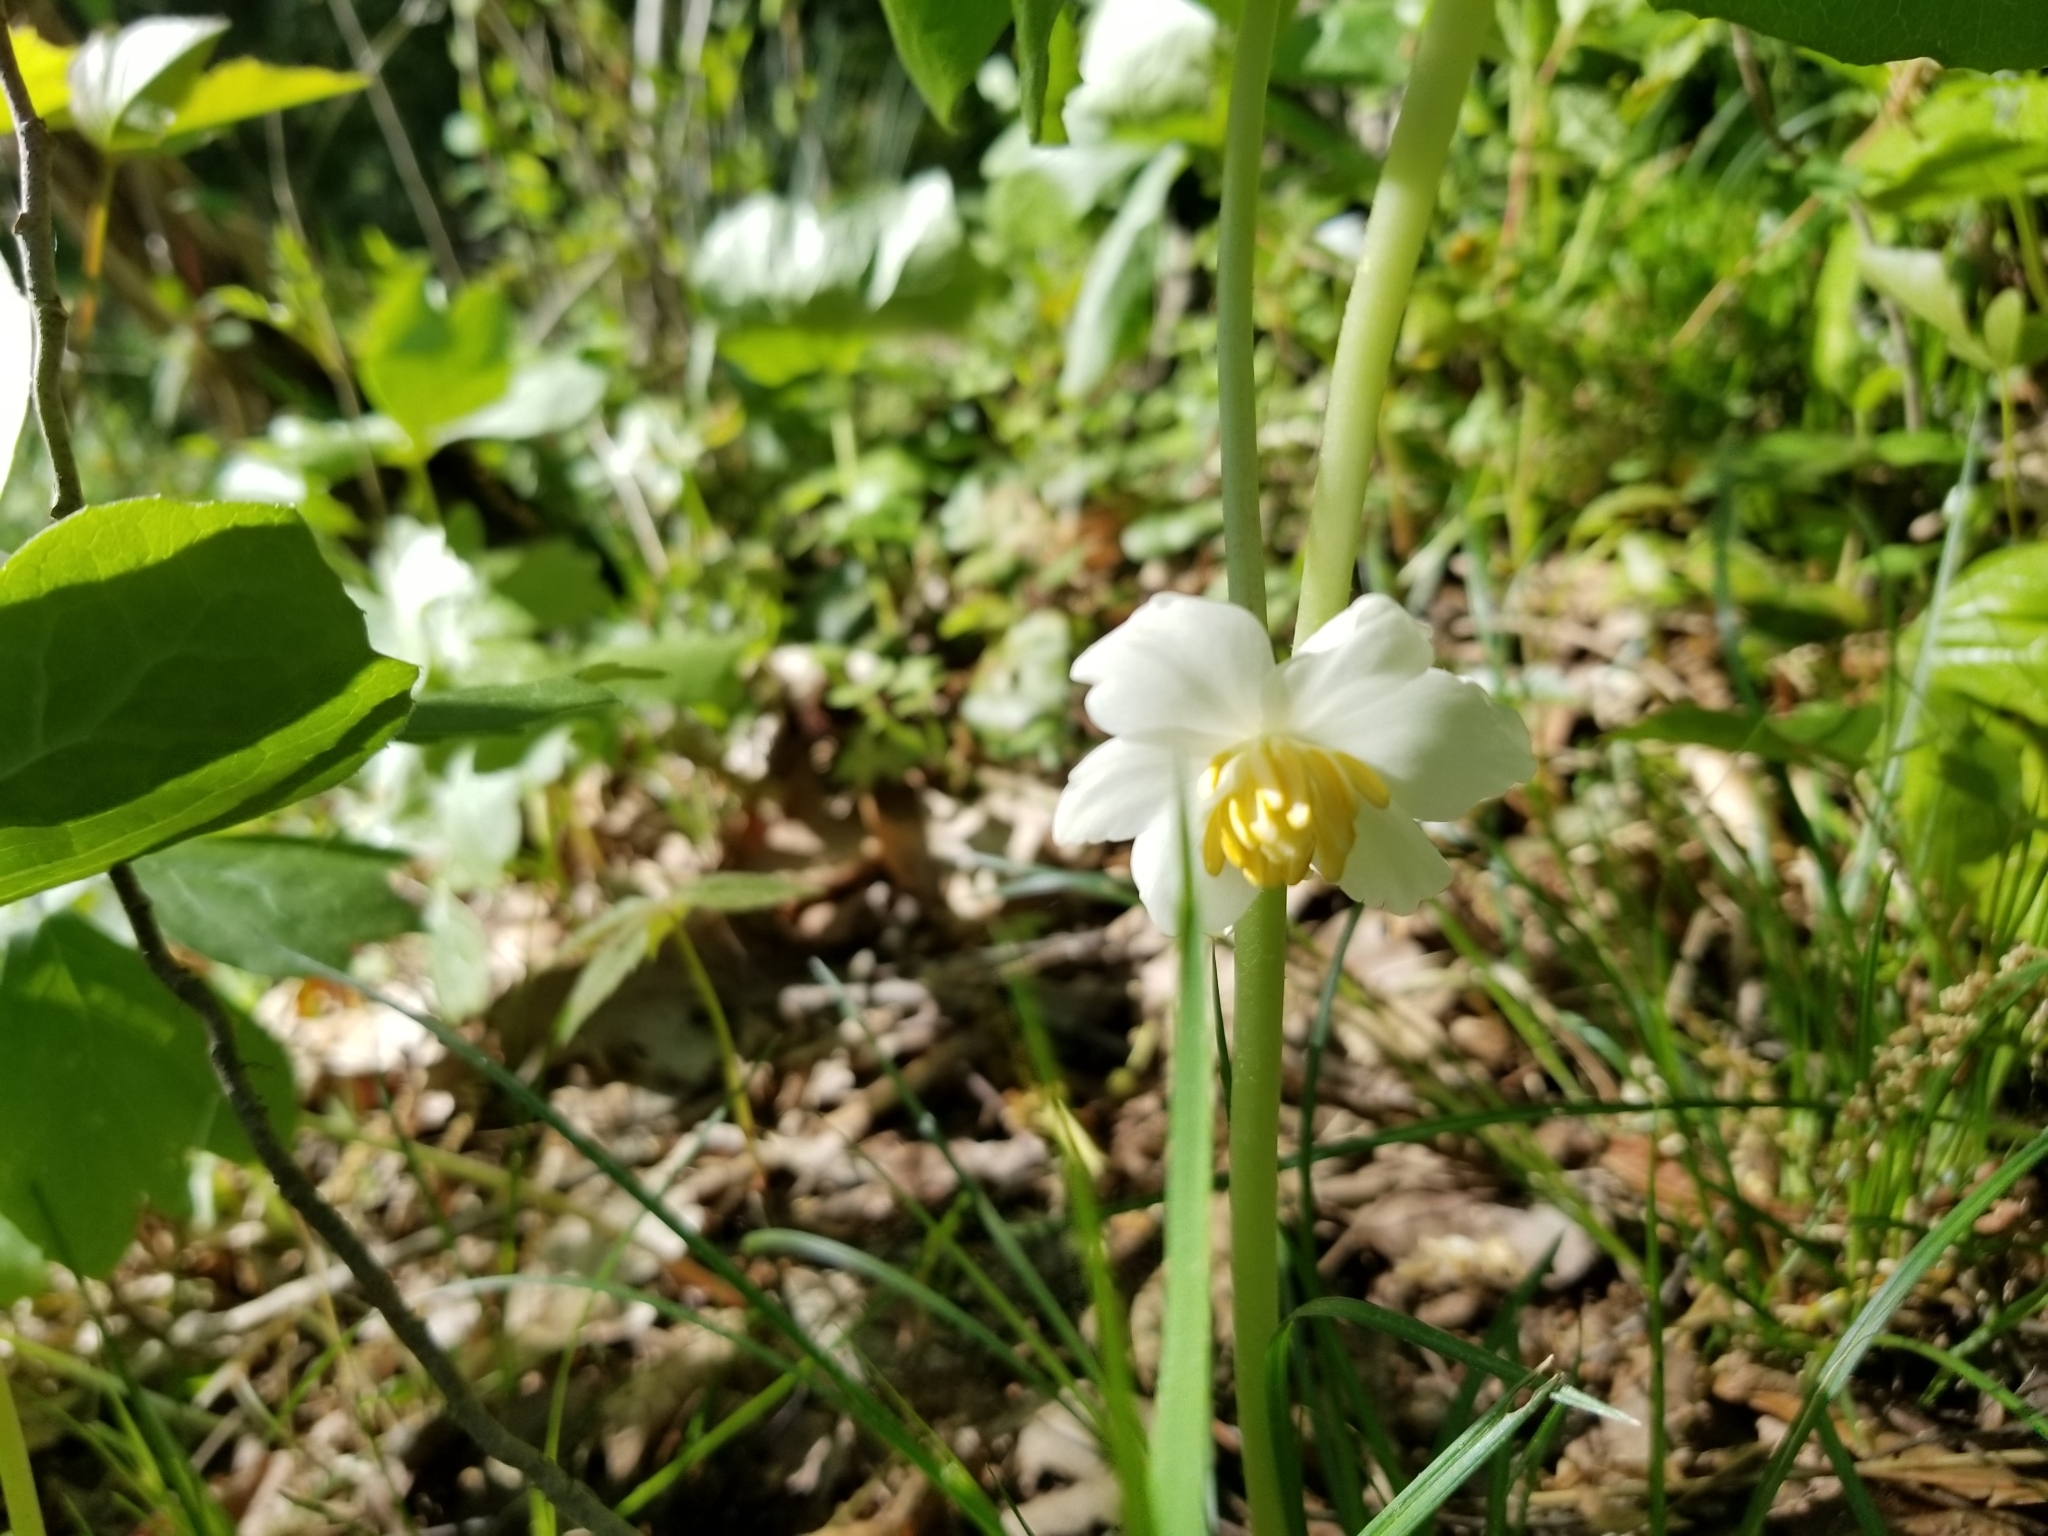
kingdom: Plantae
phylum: Tracheophyta
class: Magnoliopsida
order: Ranunculales
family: Berberidaceae
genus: Podophyllum
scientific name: Podophyllum peltatum
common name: Wild mandrake
